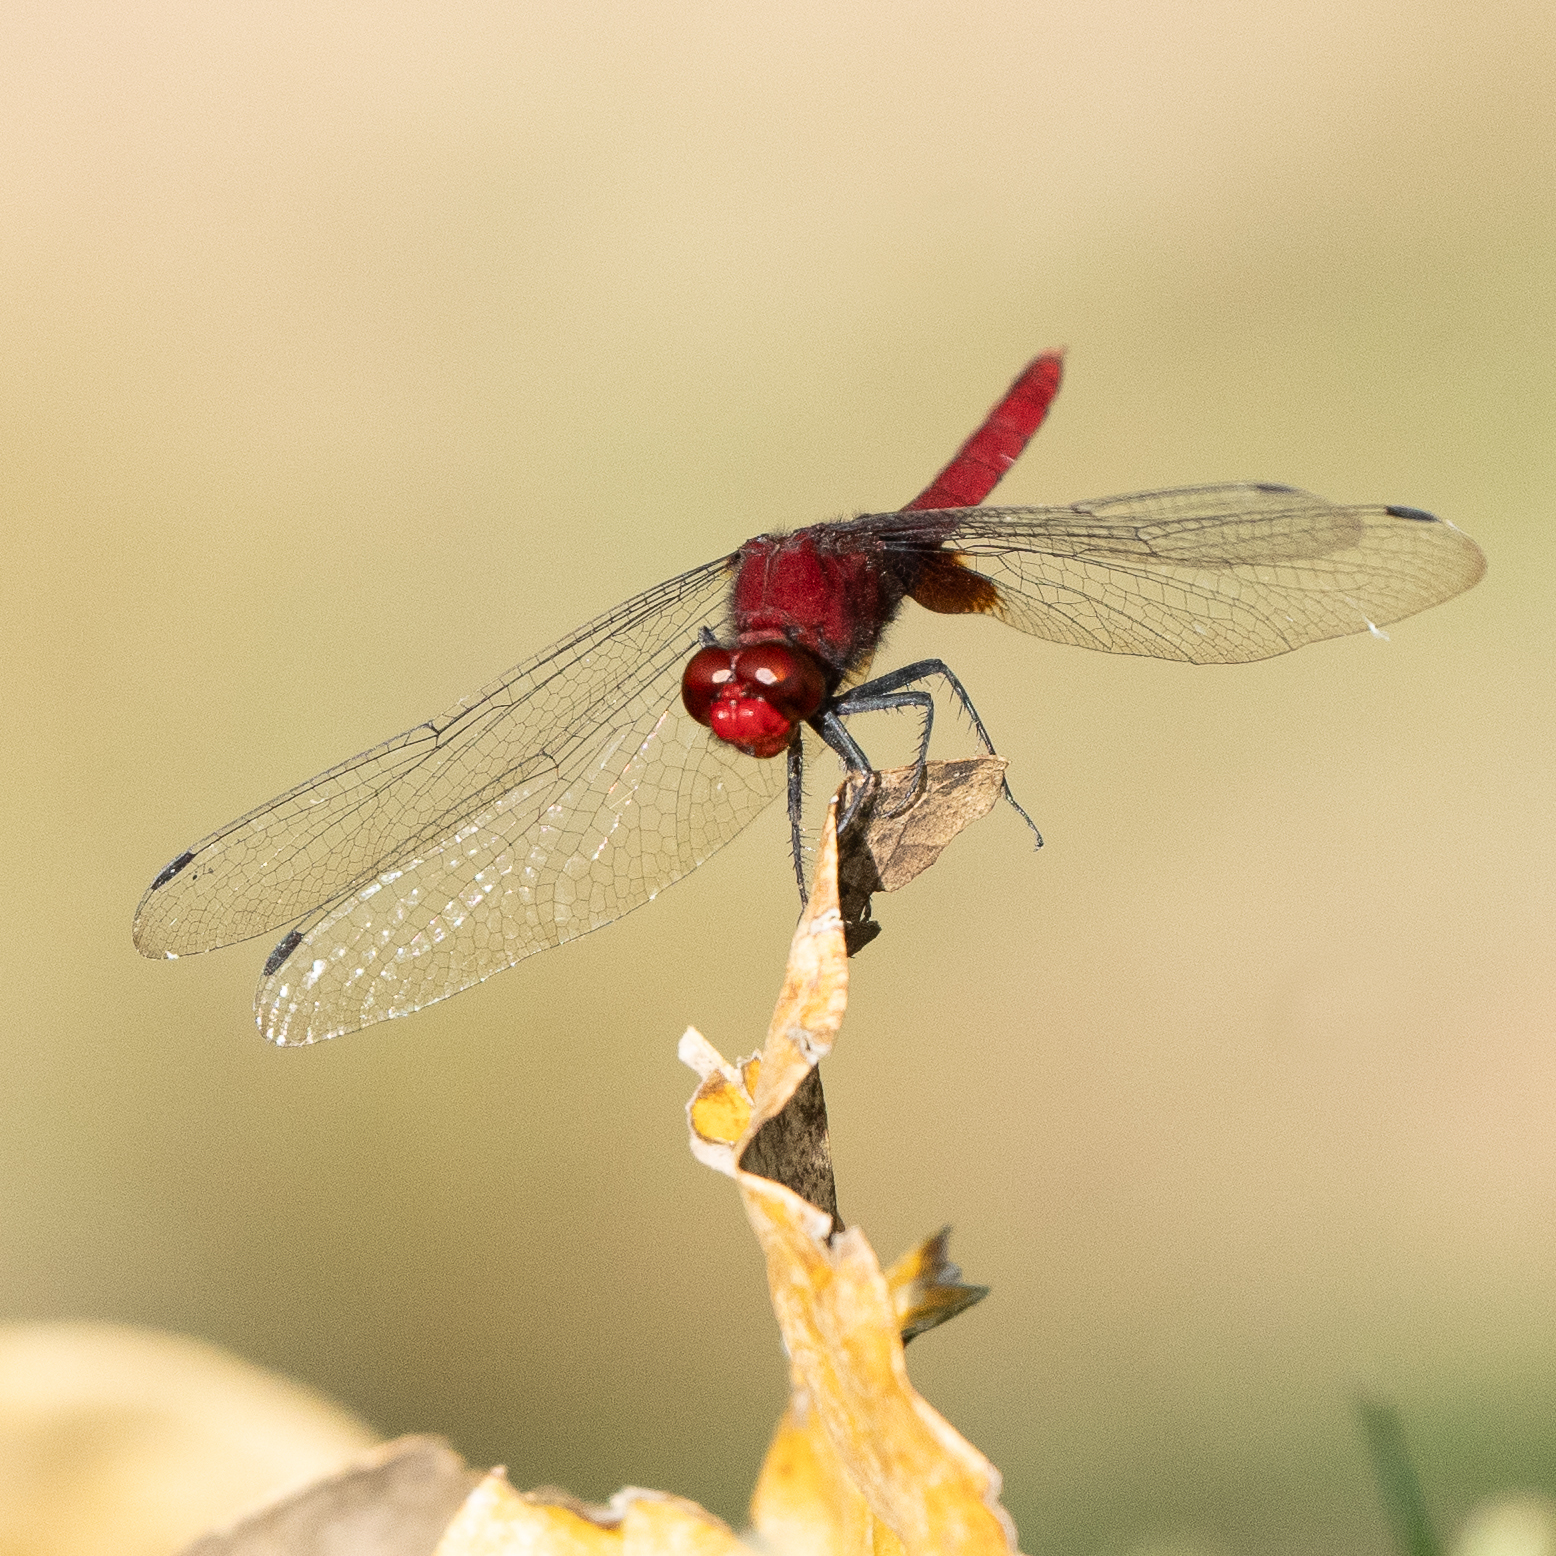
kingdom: Animalia
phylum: Arthropoda
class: Insecta
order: Odonata
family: Libellulidae
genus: Erythemis
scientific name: Erythemis mithroides
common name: Claret pondhawk
